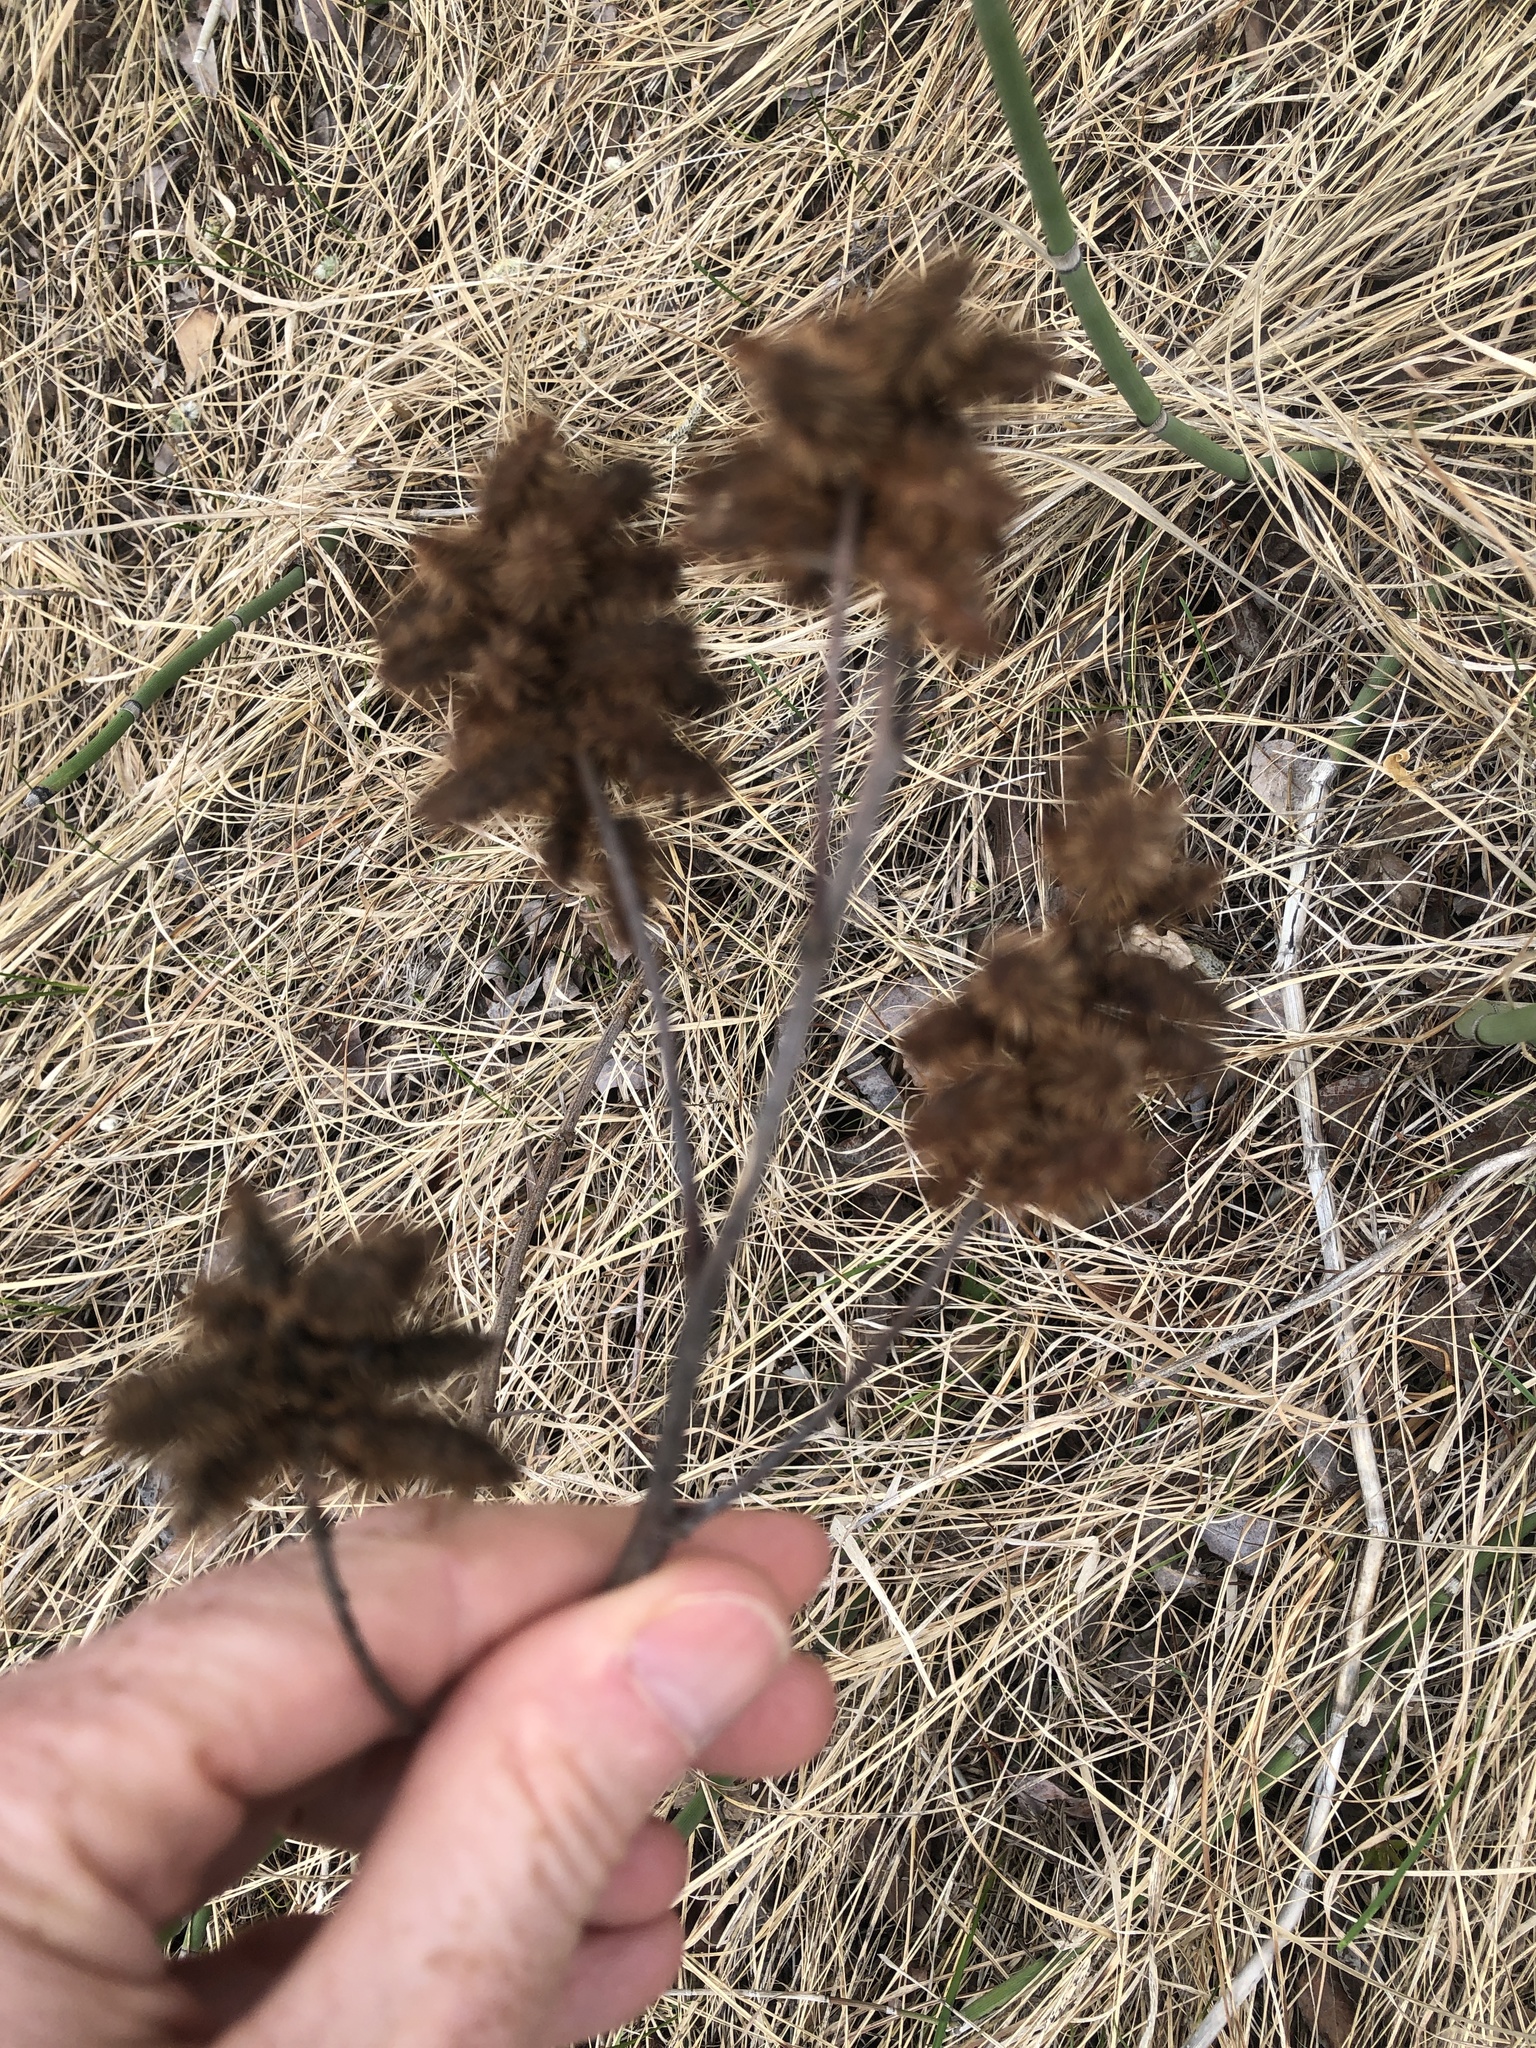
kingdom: Plantae
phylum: Tracheophyta
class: Magnoliopsida
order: Fabales
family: Fabaceae
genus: Glycyrrhiza
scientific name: Glycyrrhiza lepidota
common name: American liquorice
